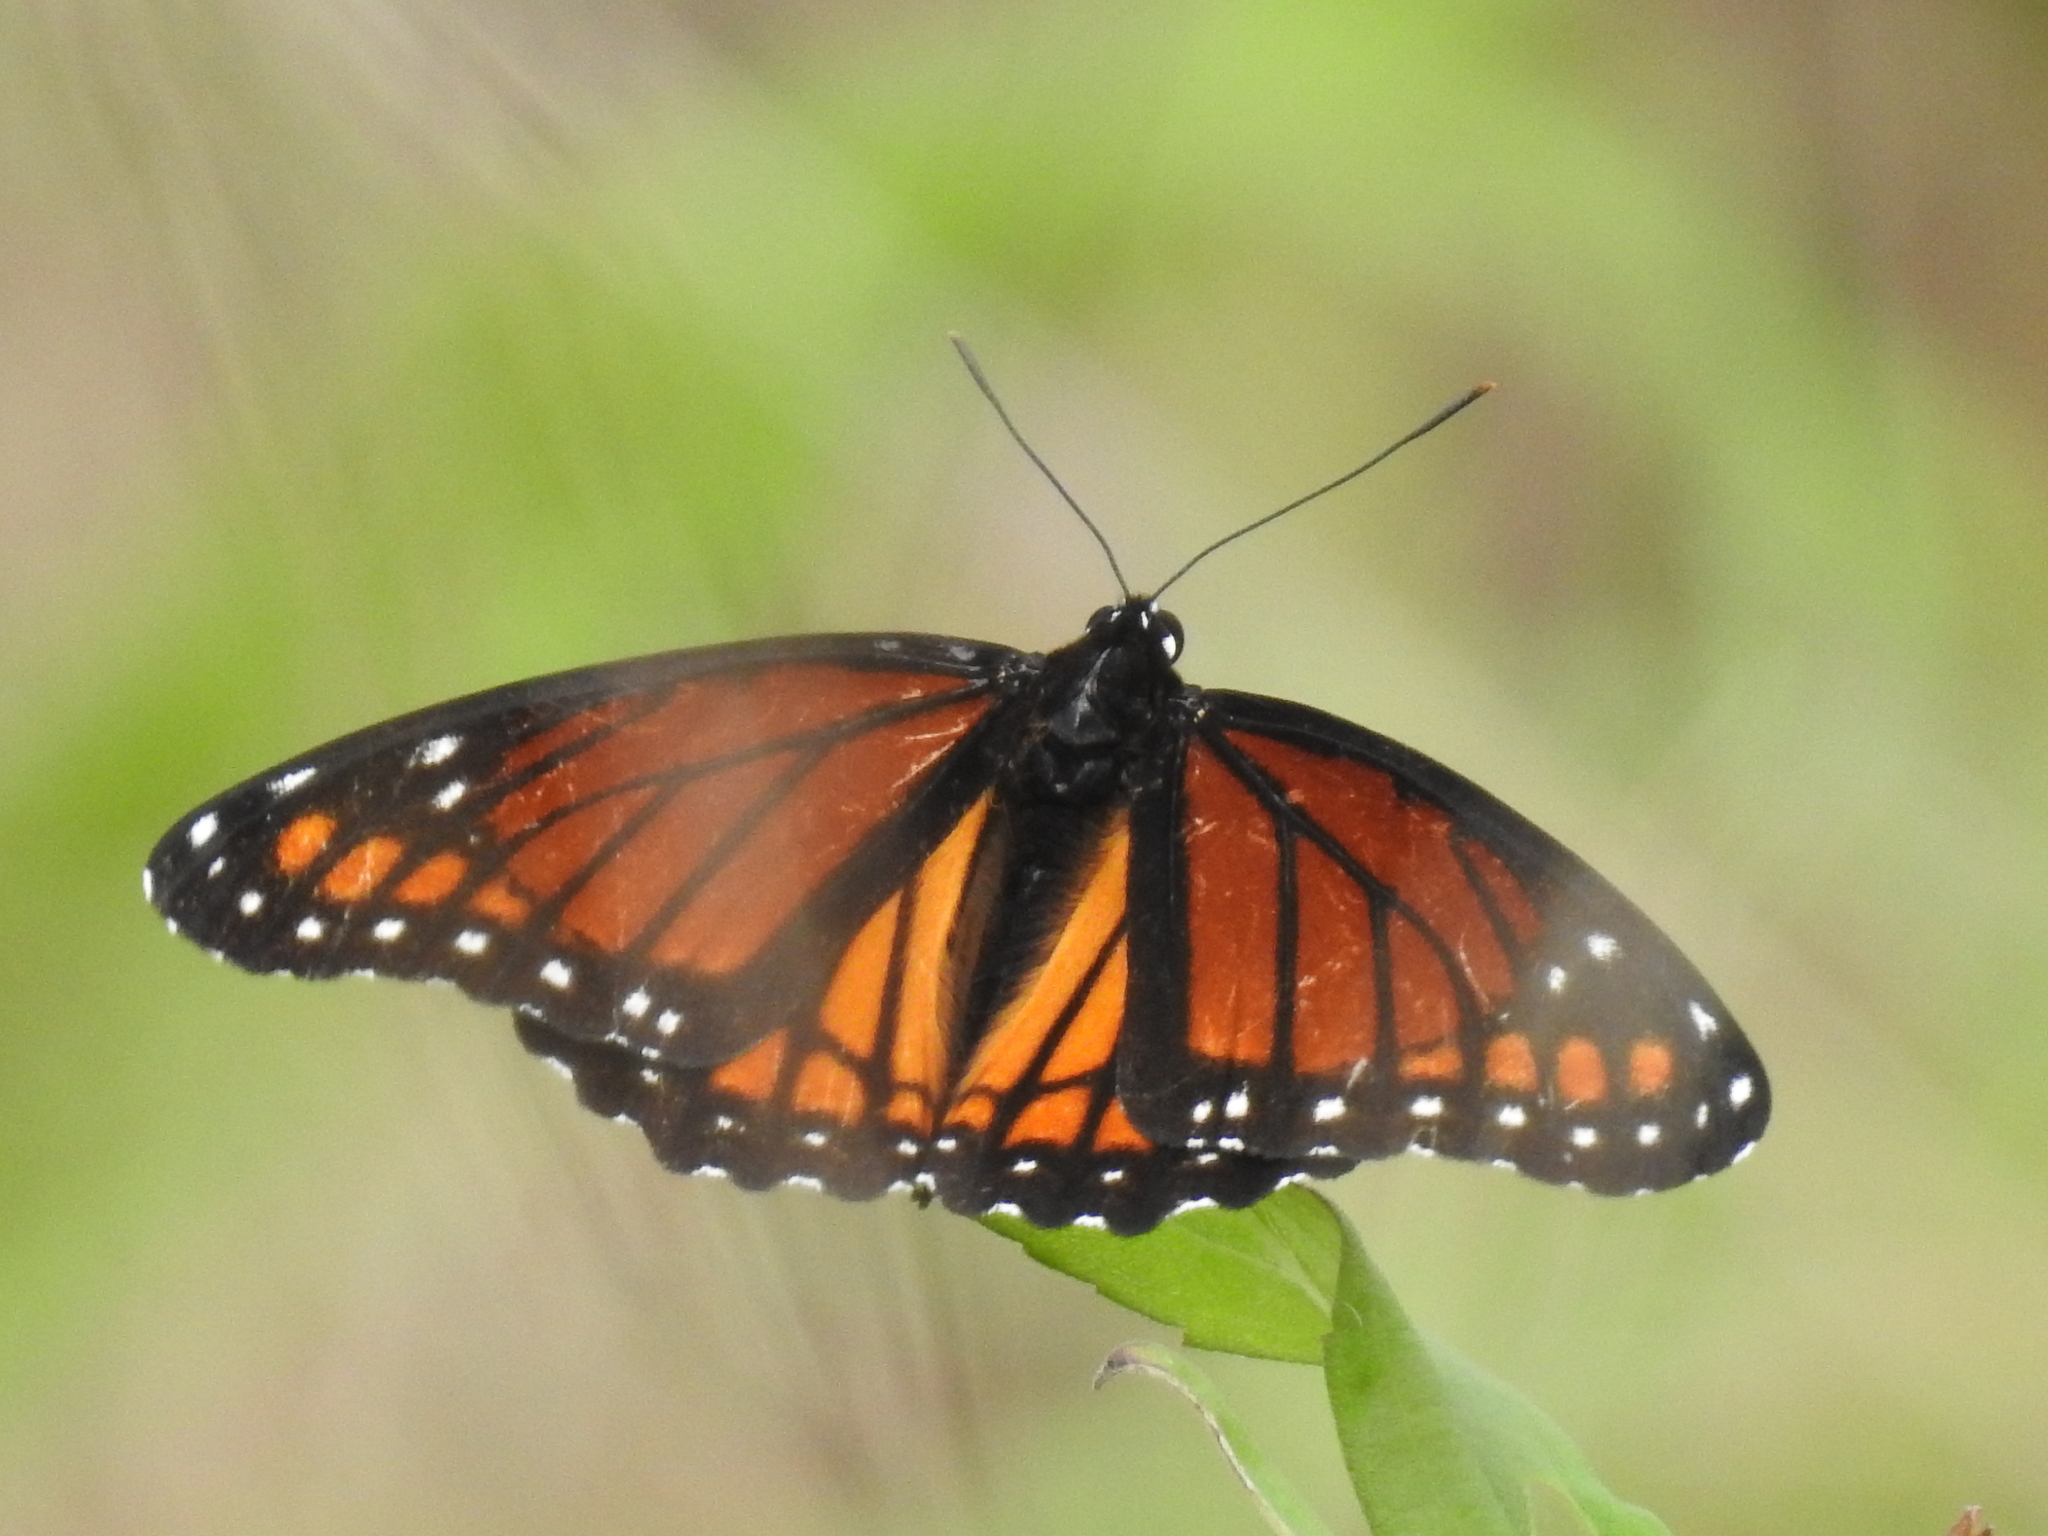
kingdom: Animalia
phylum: Arthropoda
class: Insecta
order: Lepidoptera
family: Nymphalidae
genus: Limenitis
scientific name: Limenitis archippus
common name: Viceroy
